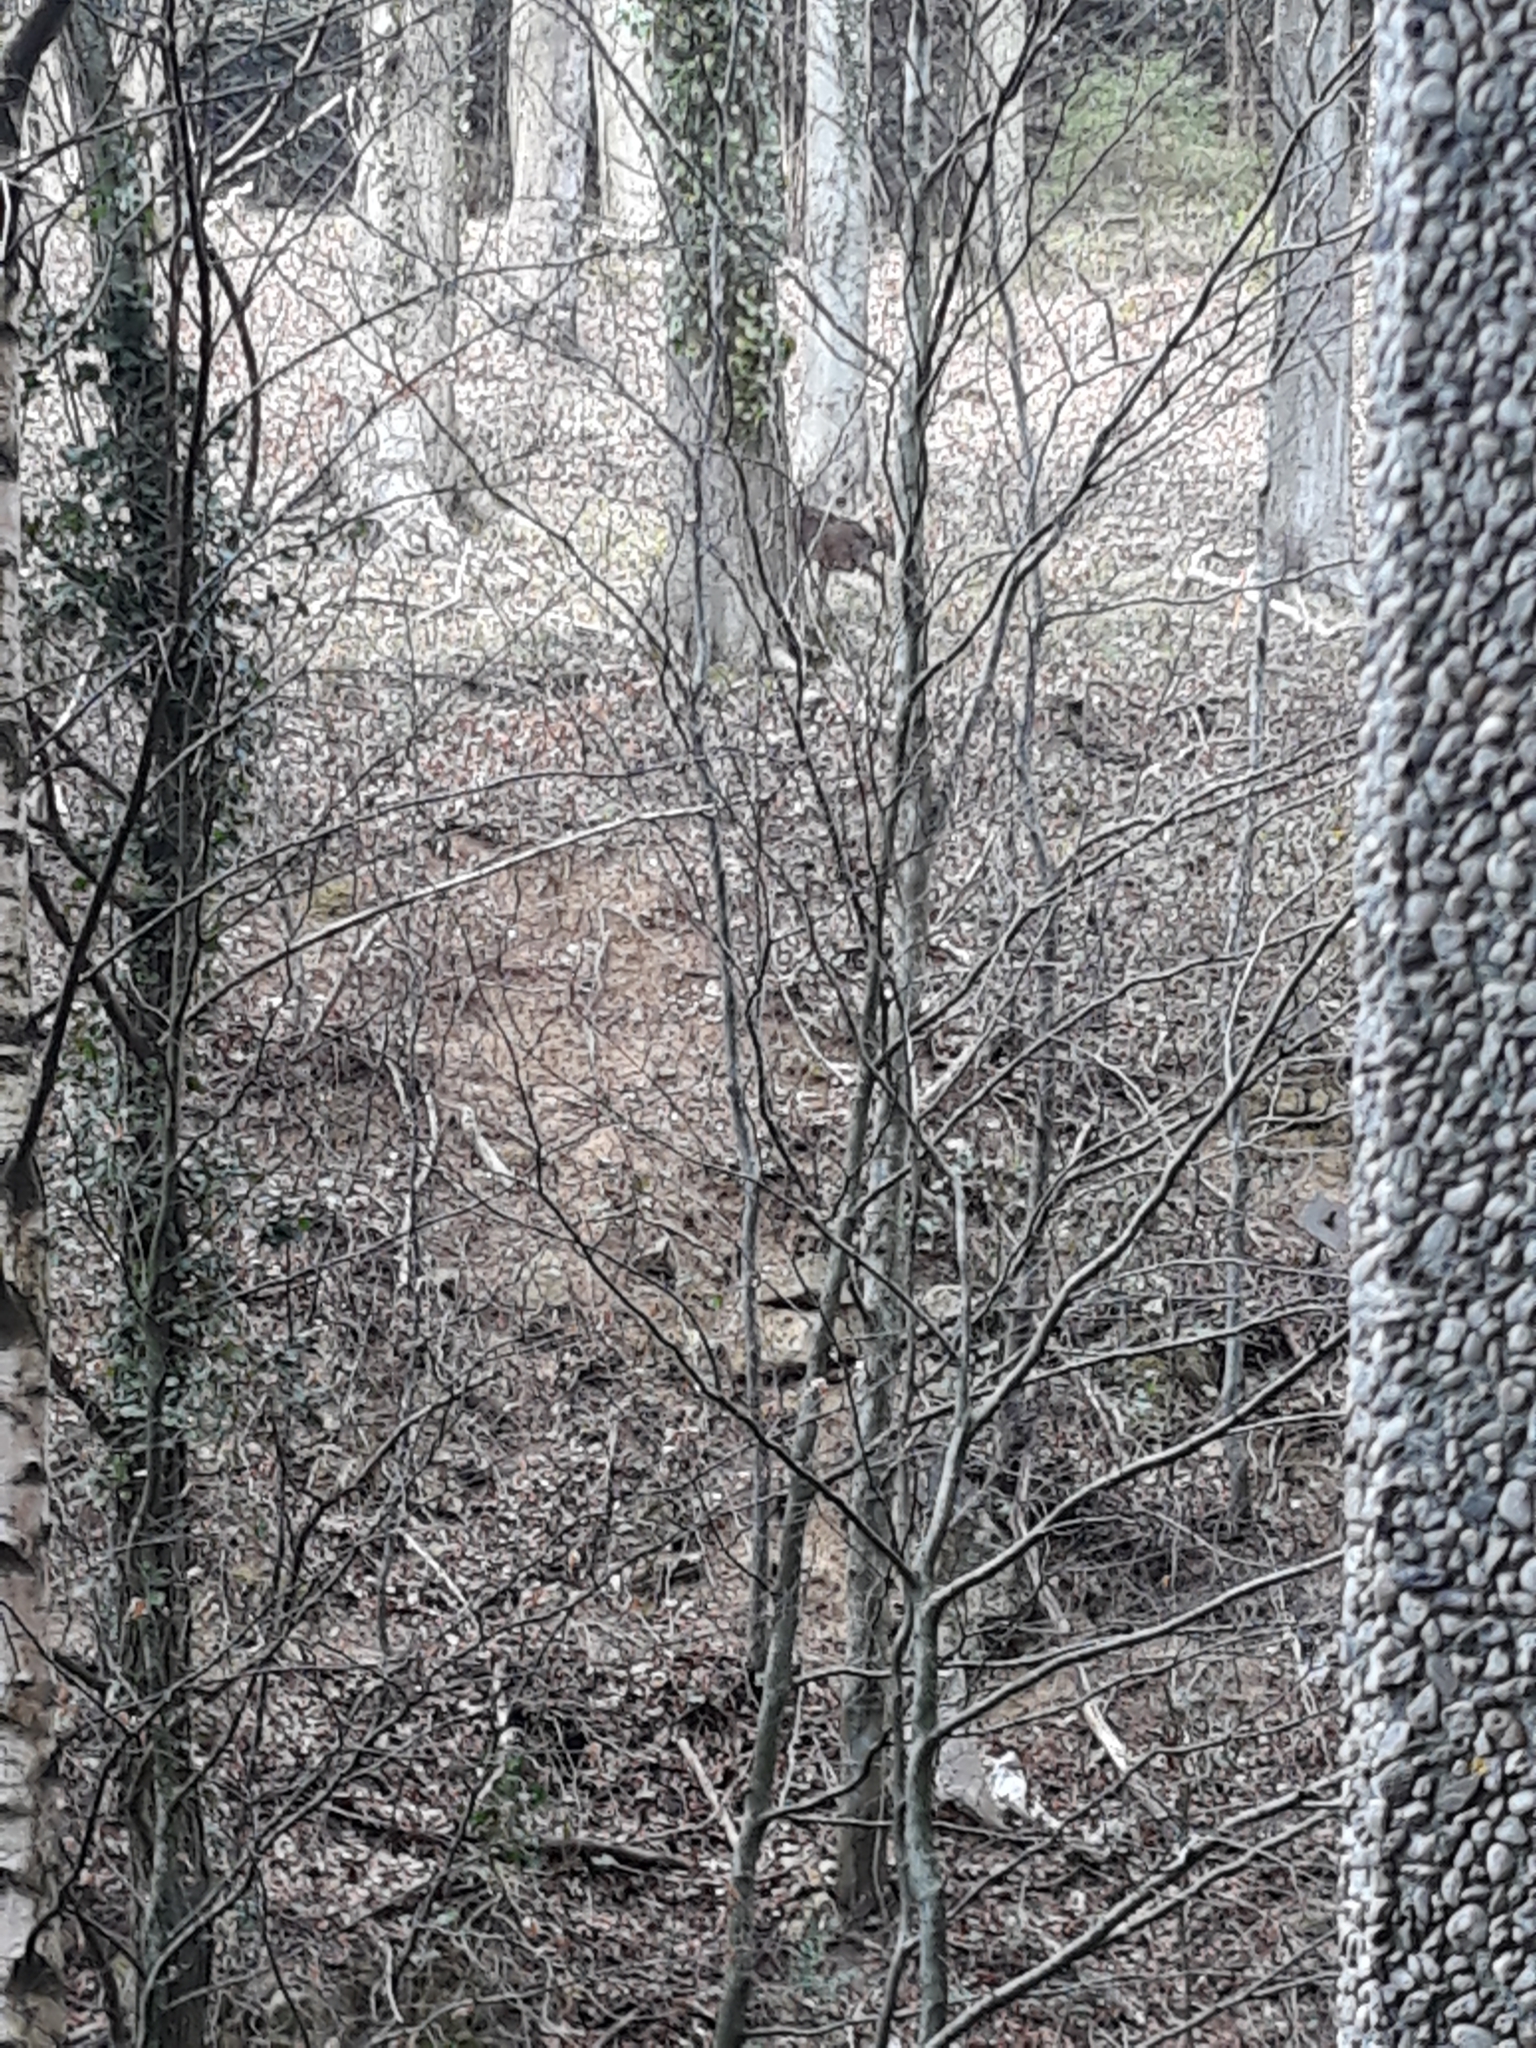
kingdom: Animalia
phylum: Chordata
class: Mammalia
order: Artiodactyla
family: Cervidae
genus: Capreolus
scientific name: Capreolus capreolus
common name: Western roe deer
